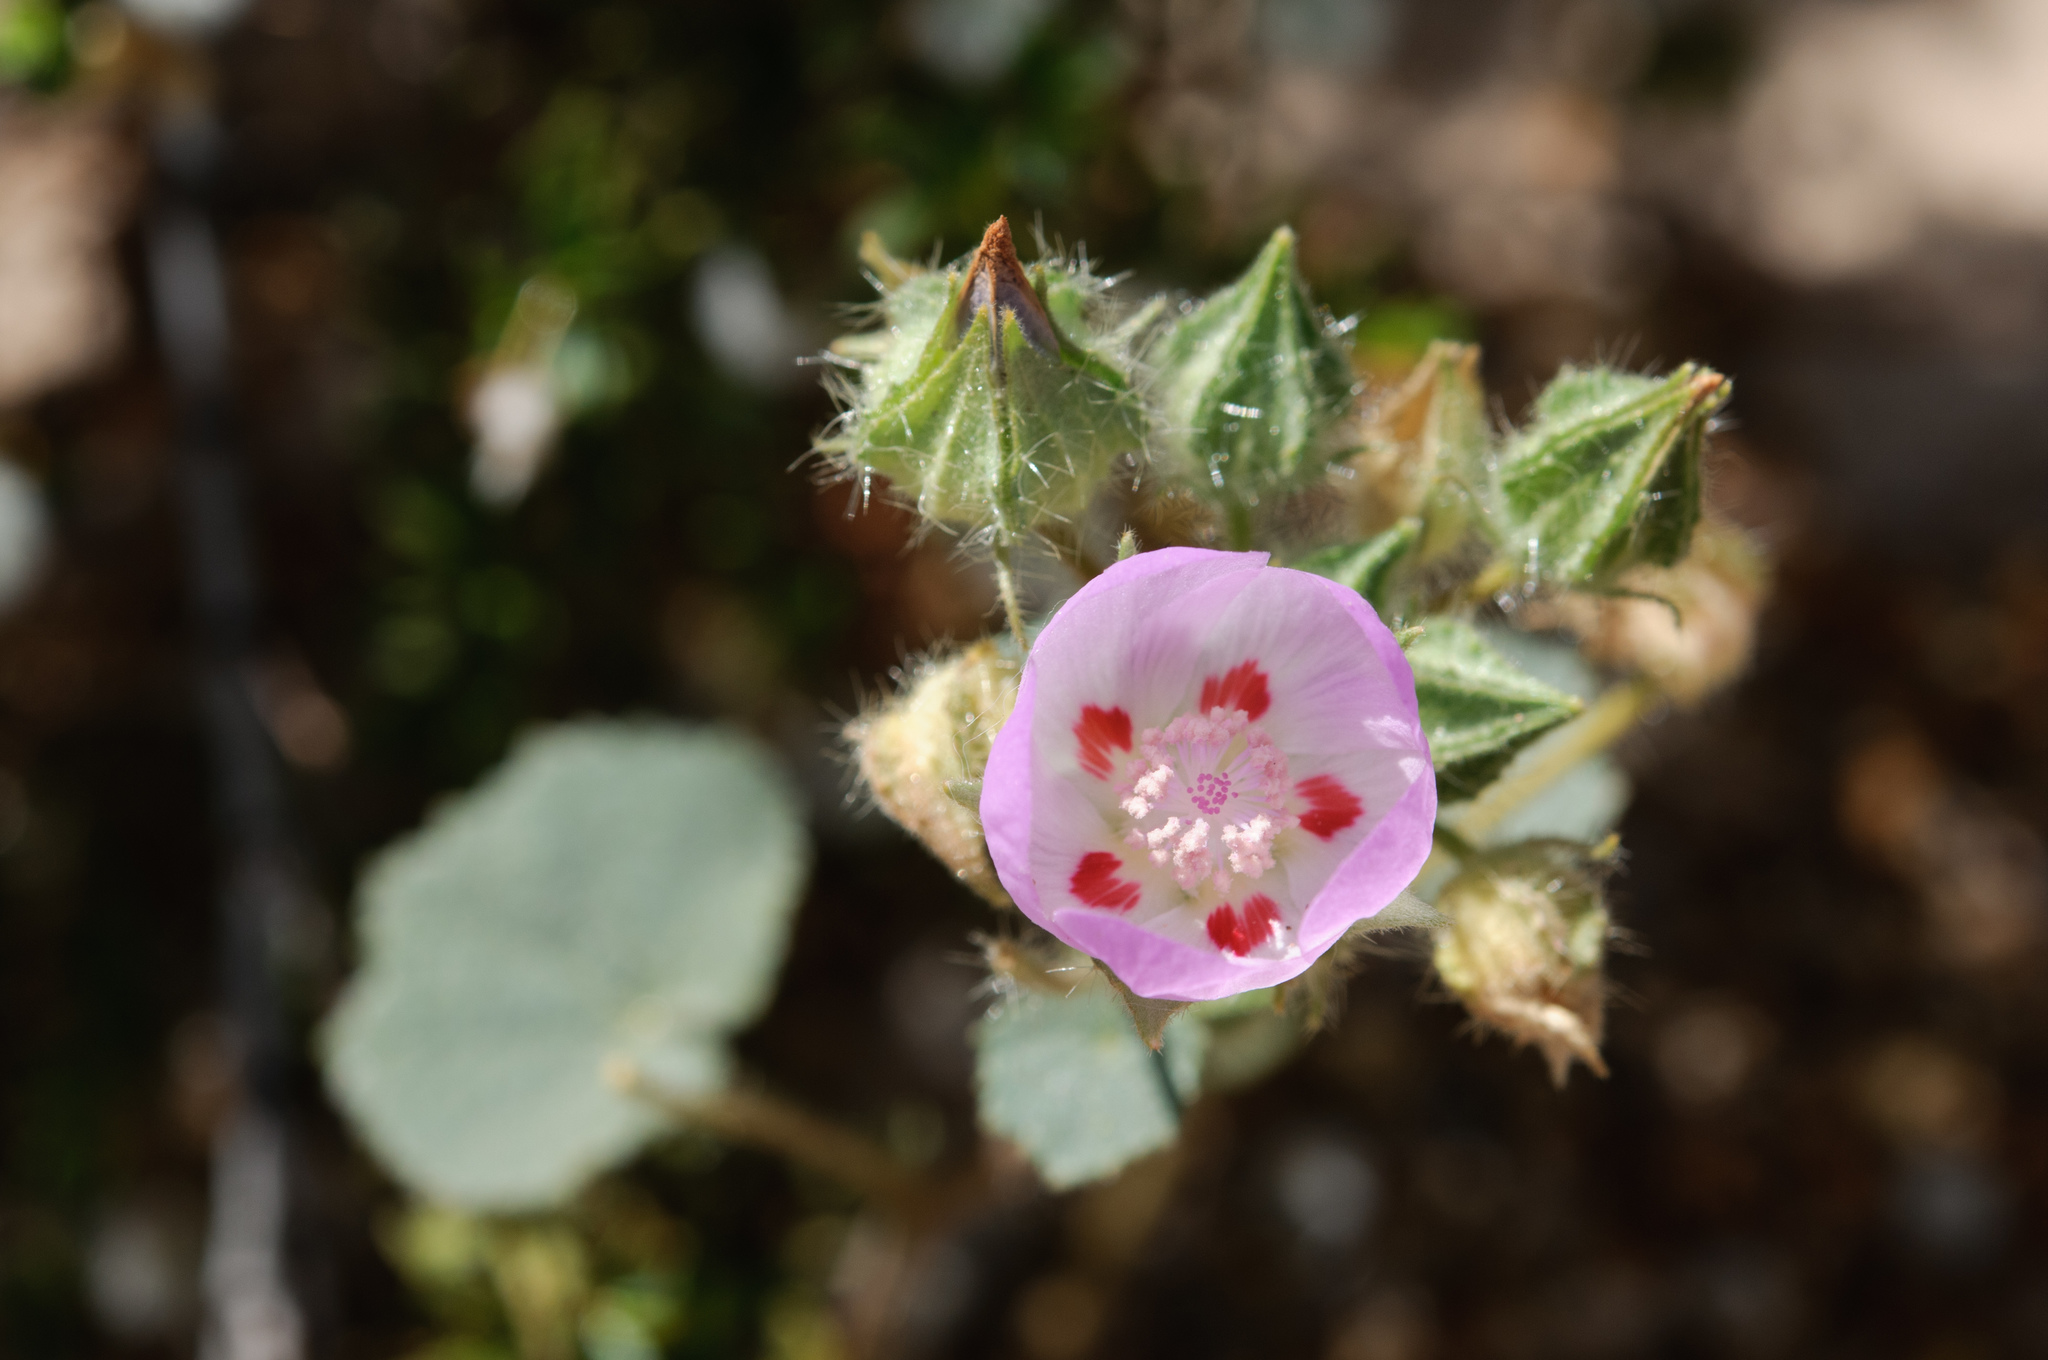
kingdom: Plantae
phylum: Tracheophyta
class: Magnoliopsida
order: Malvales
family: Malvaceae
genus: Eremalche
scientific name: Eremalche rotundifolia
